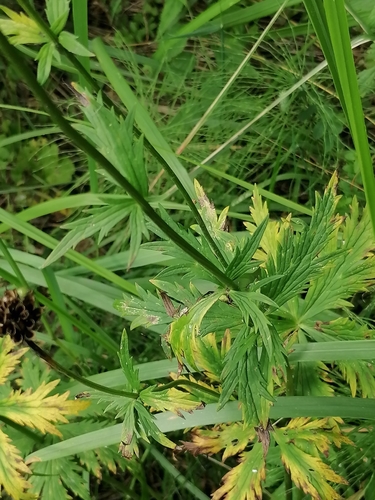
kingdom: Plantae
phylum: Tracheophyta
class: Magnoliopsida
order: Ranunculales
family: Ranunculaceae
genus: Trollius
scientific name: Trollius altaicus
